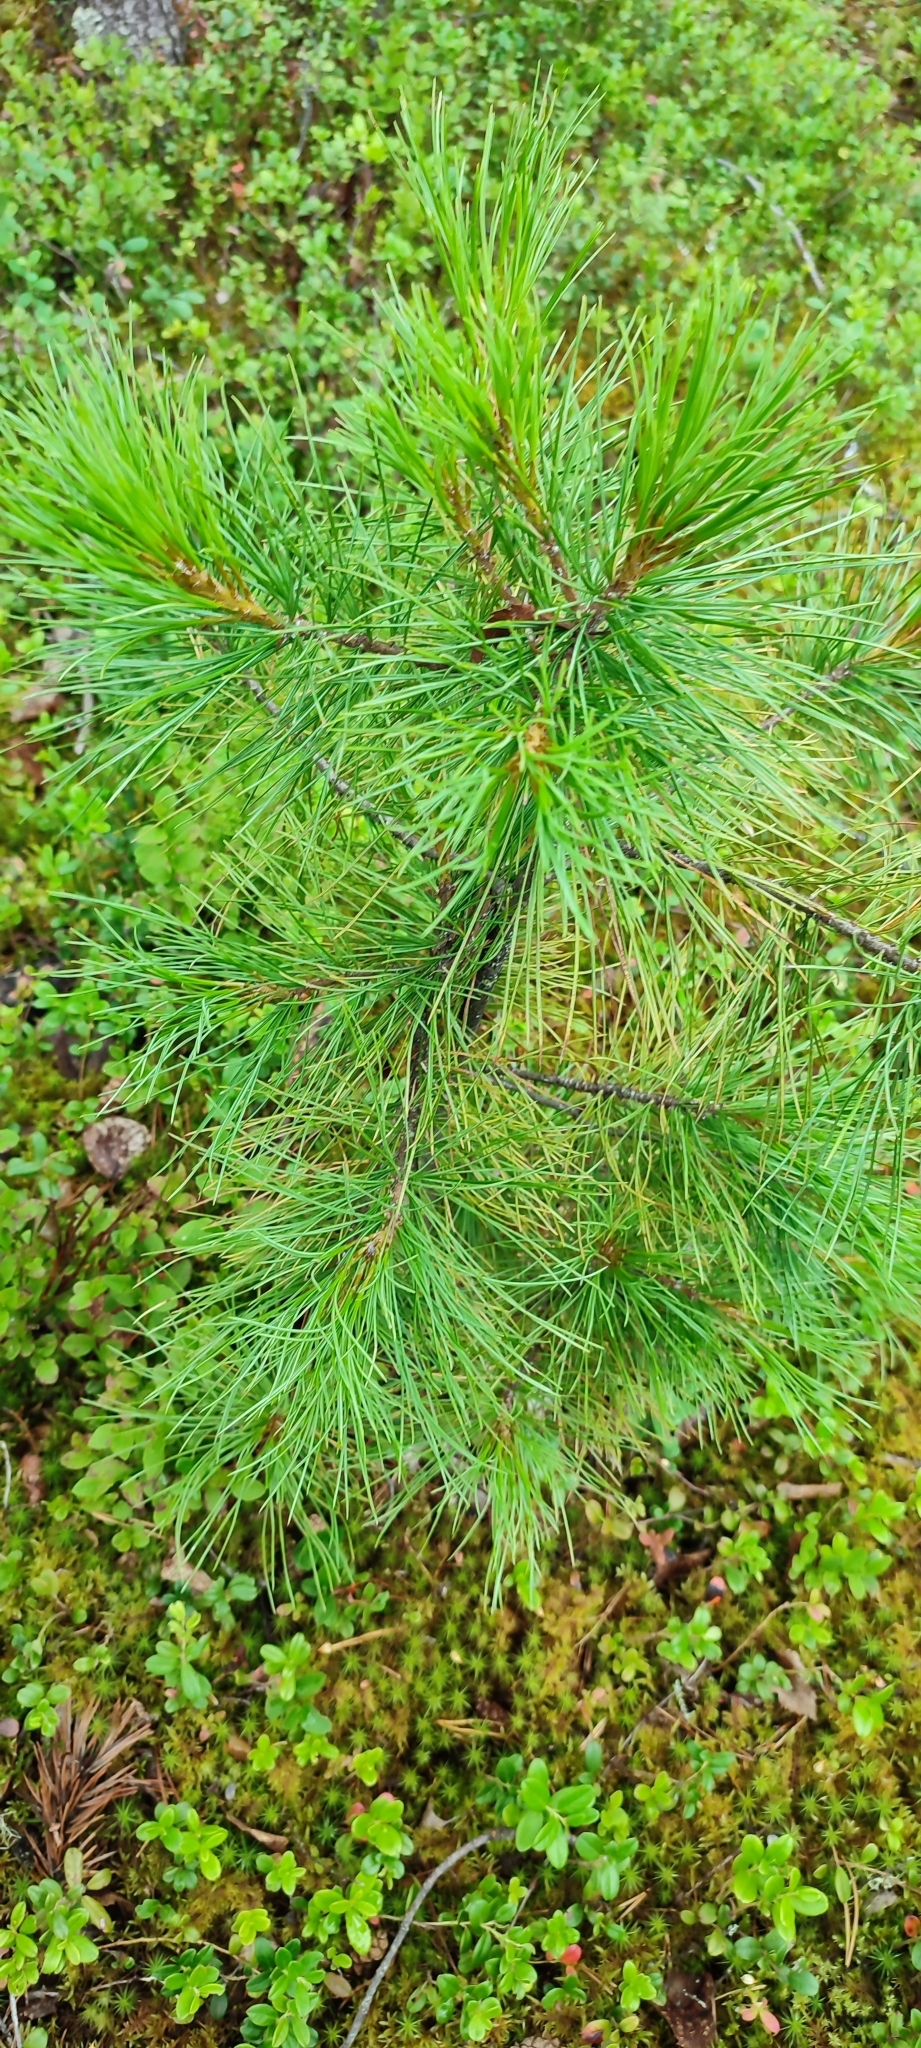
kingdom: Plantae
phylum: Tracheophyta
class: Pinopsida
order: Pinales
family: Pinaceae
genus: Pinus
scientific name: Pinus sibirica
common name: Siberian pine
